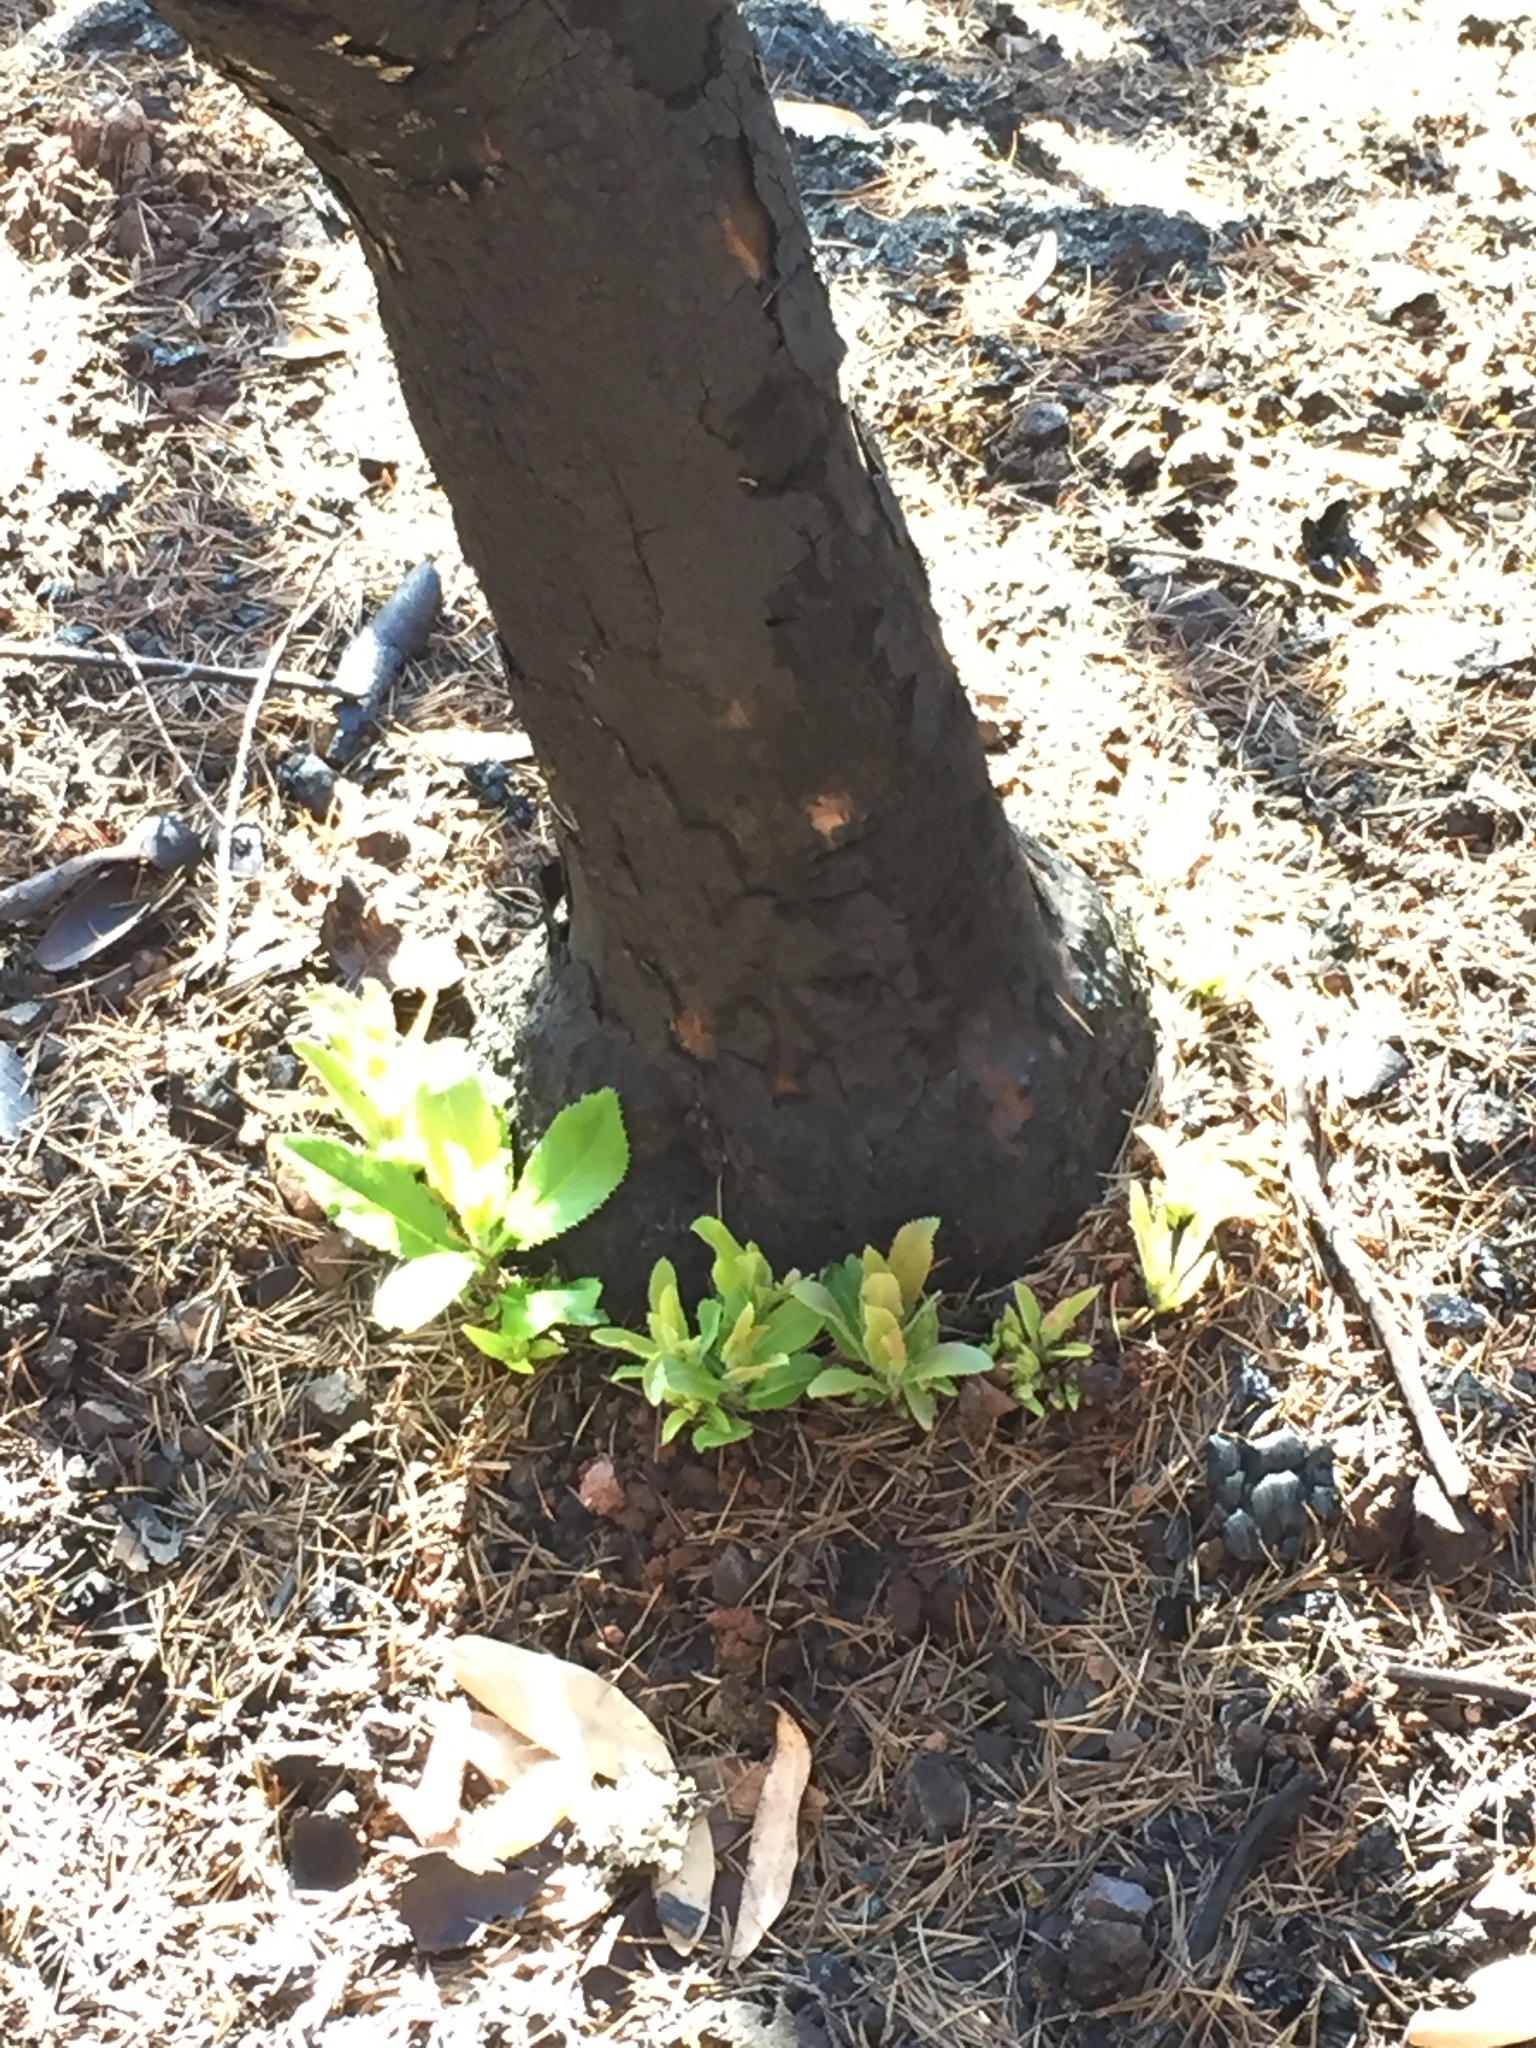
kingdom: Plantae
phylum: Tracheophyta
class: Magnoliopsida
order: Ericales
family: Ericaceae
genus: Arbutus
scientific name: Arbutus menziesii
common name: Pacific madrone
